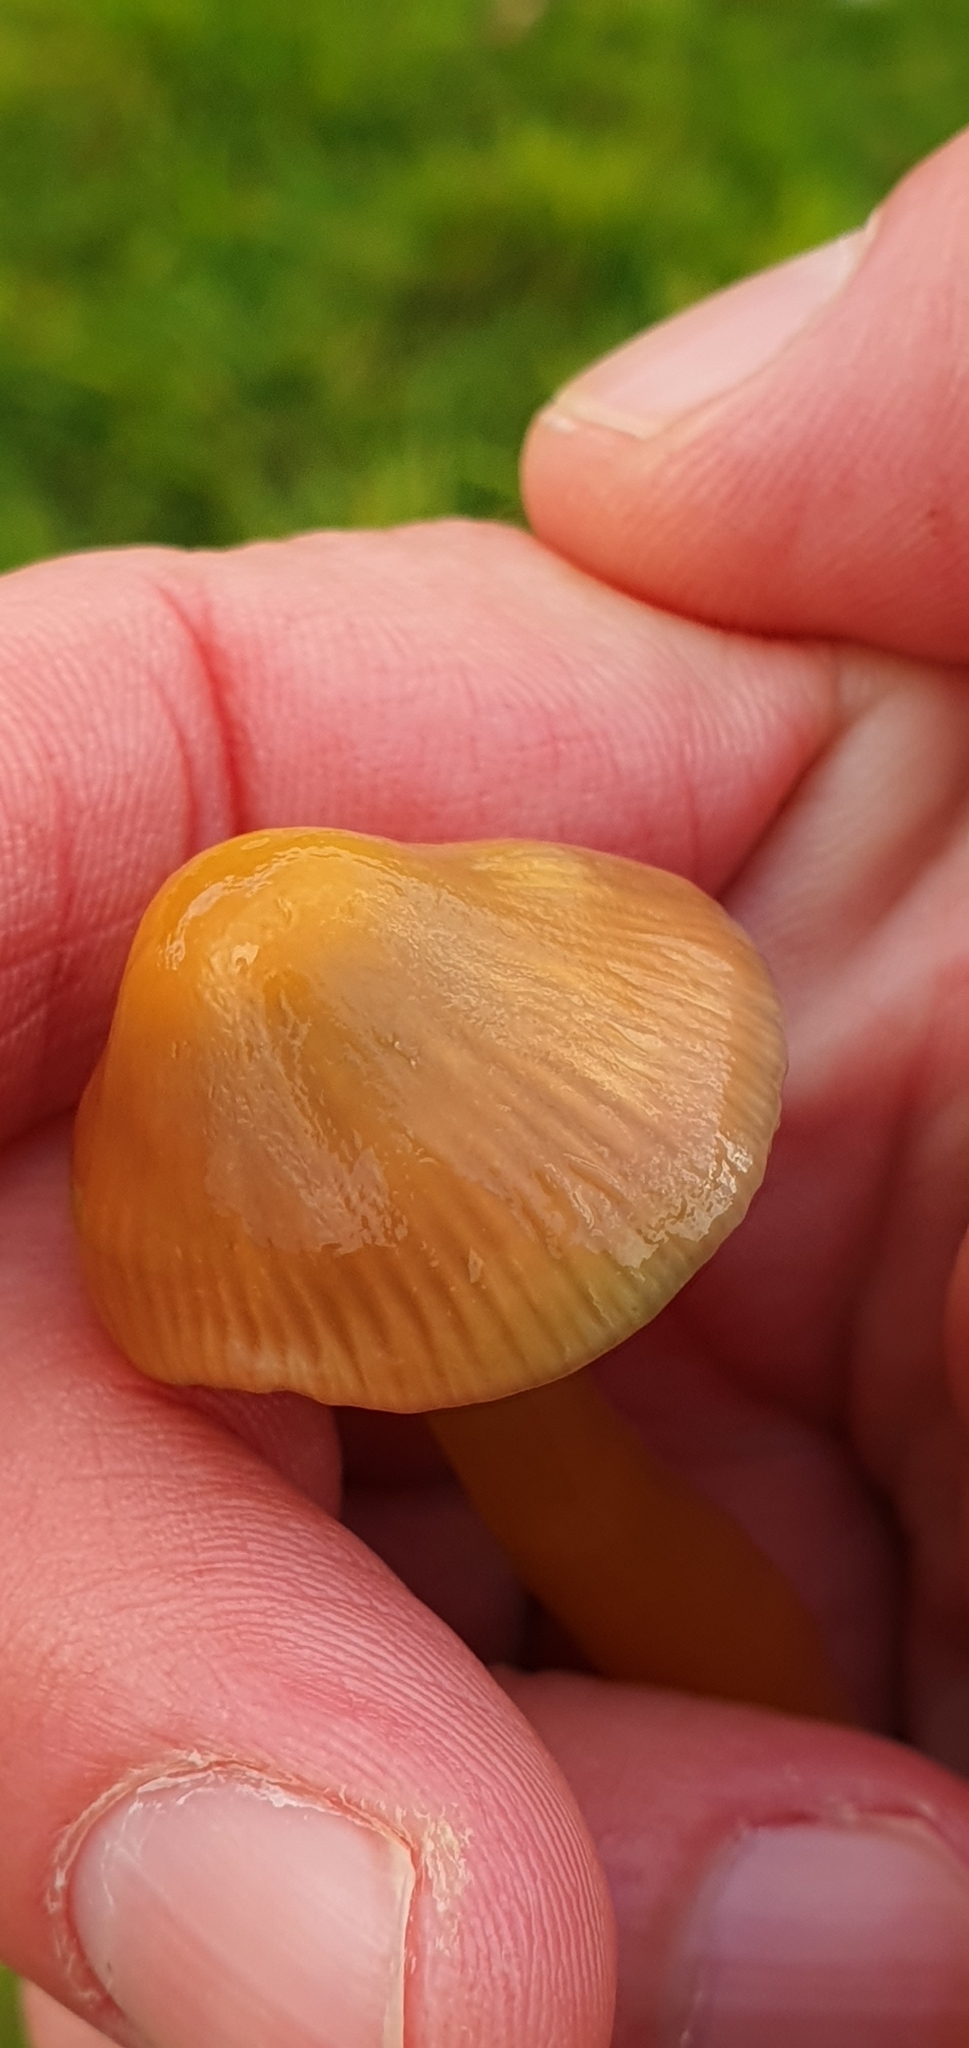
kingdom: Fungi
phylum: Basidiomycota
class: Agaricomycetes
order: Agaricales
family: Hygrophoraceae
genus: Gliophorus
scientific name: Gliophorus psittacinus
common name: Parrot wax-cap
